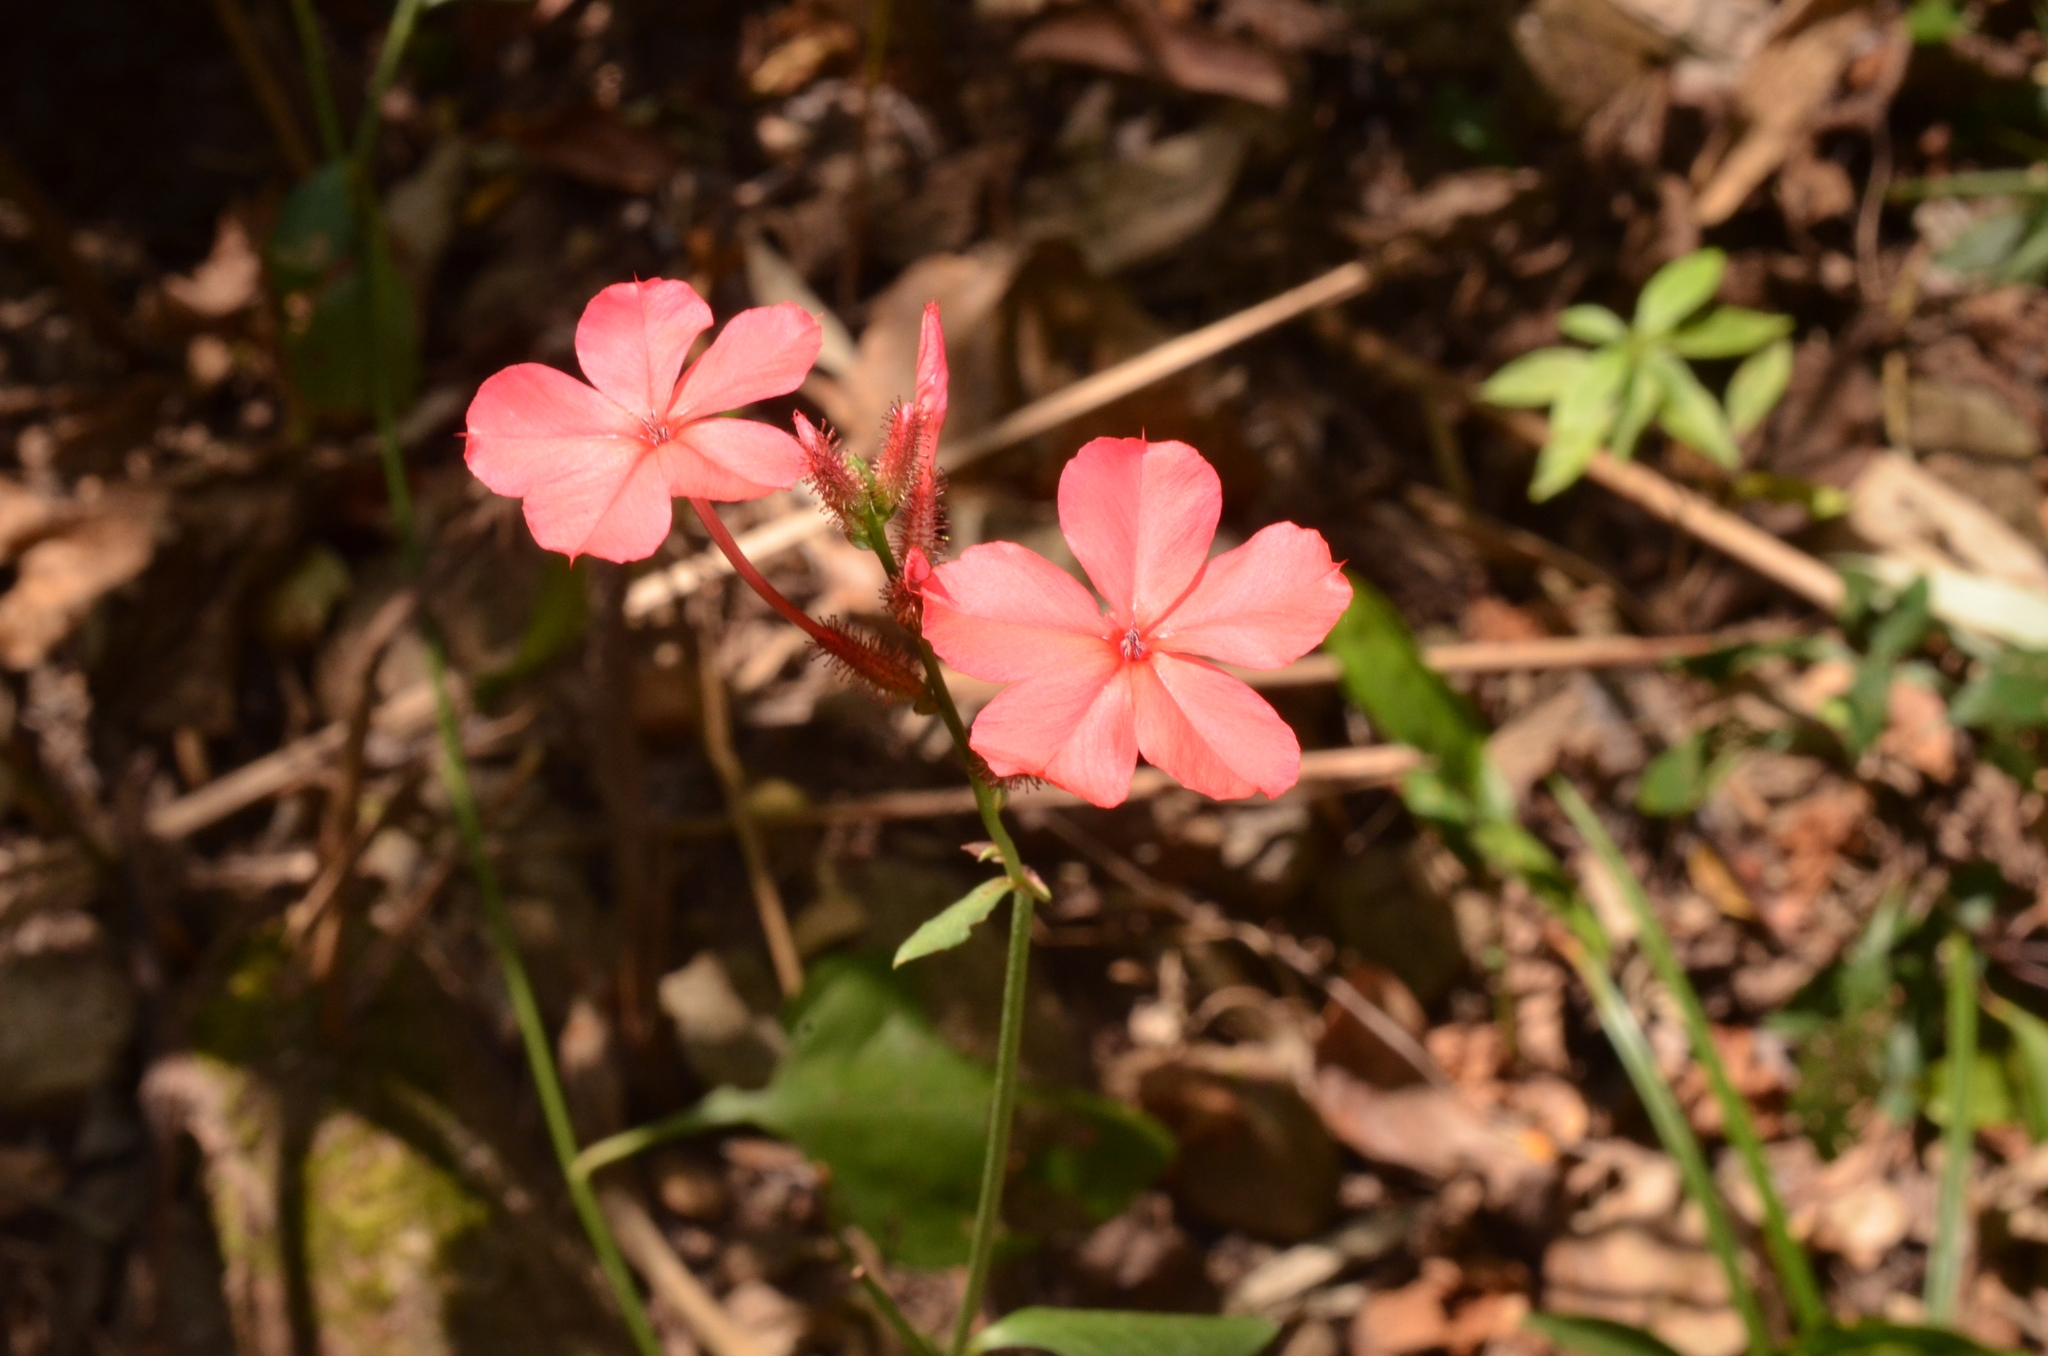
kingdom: Plantae
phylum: Tracheophyta
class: Magnoliopsida
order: Caryophyllales
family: Plumbaginaceae
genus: Plumbago
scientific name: Plumbago indica
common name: Indian leadwort
